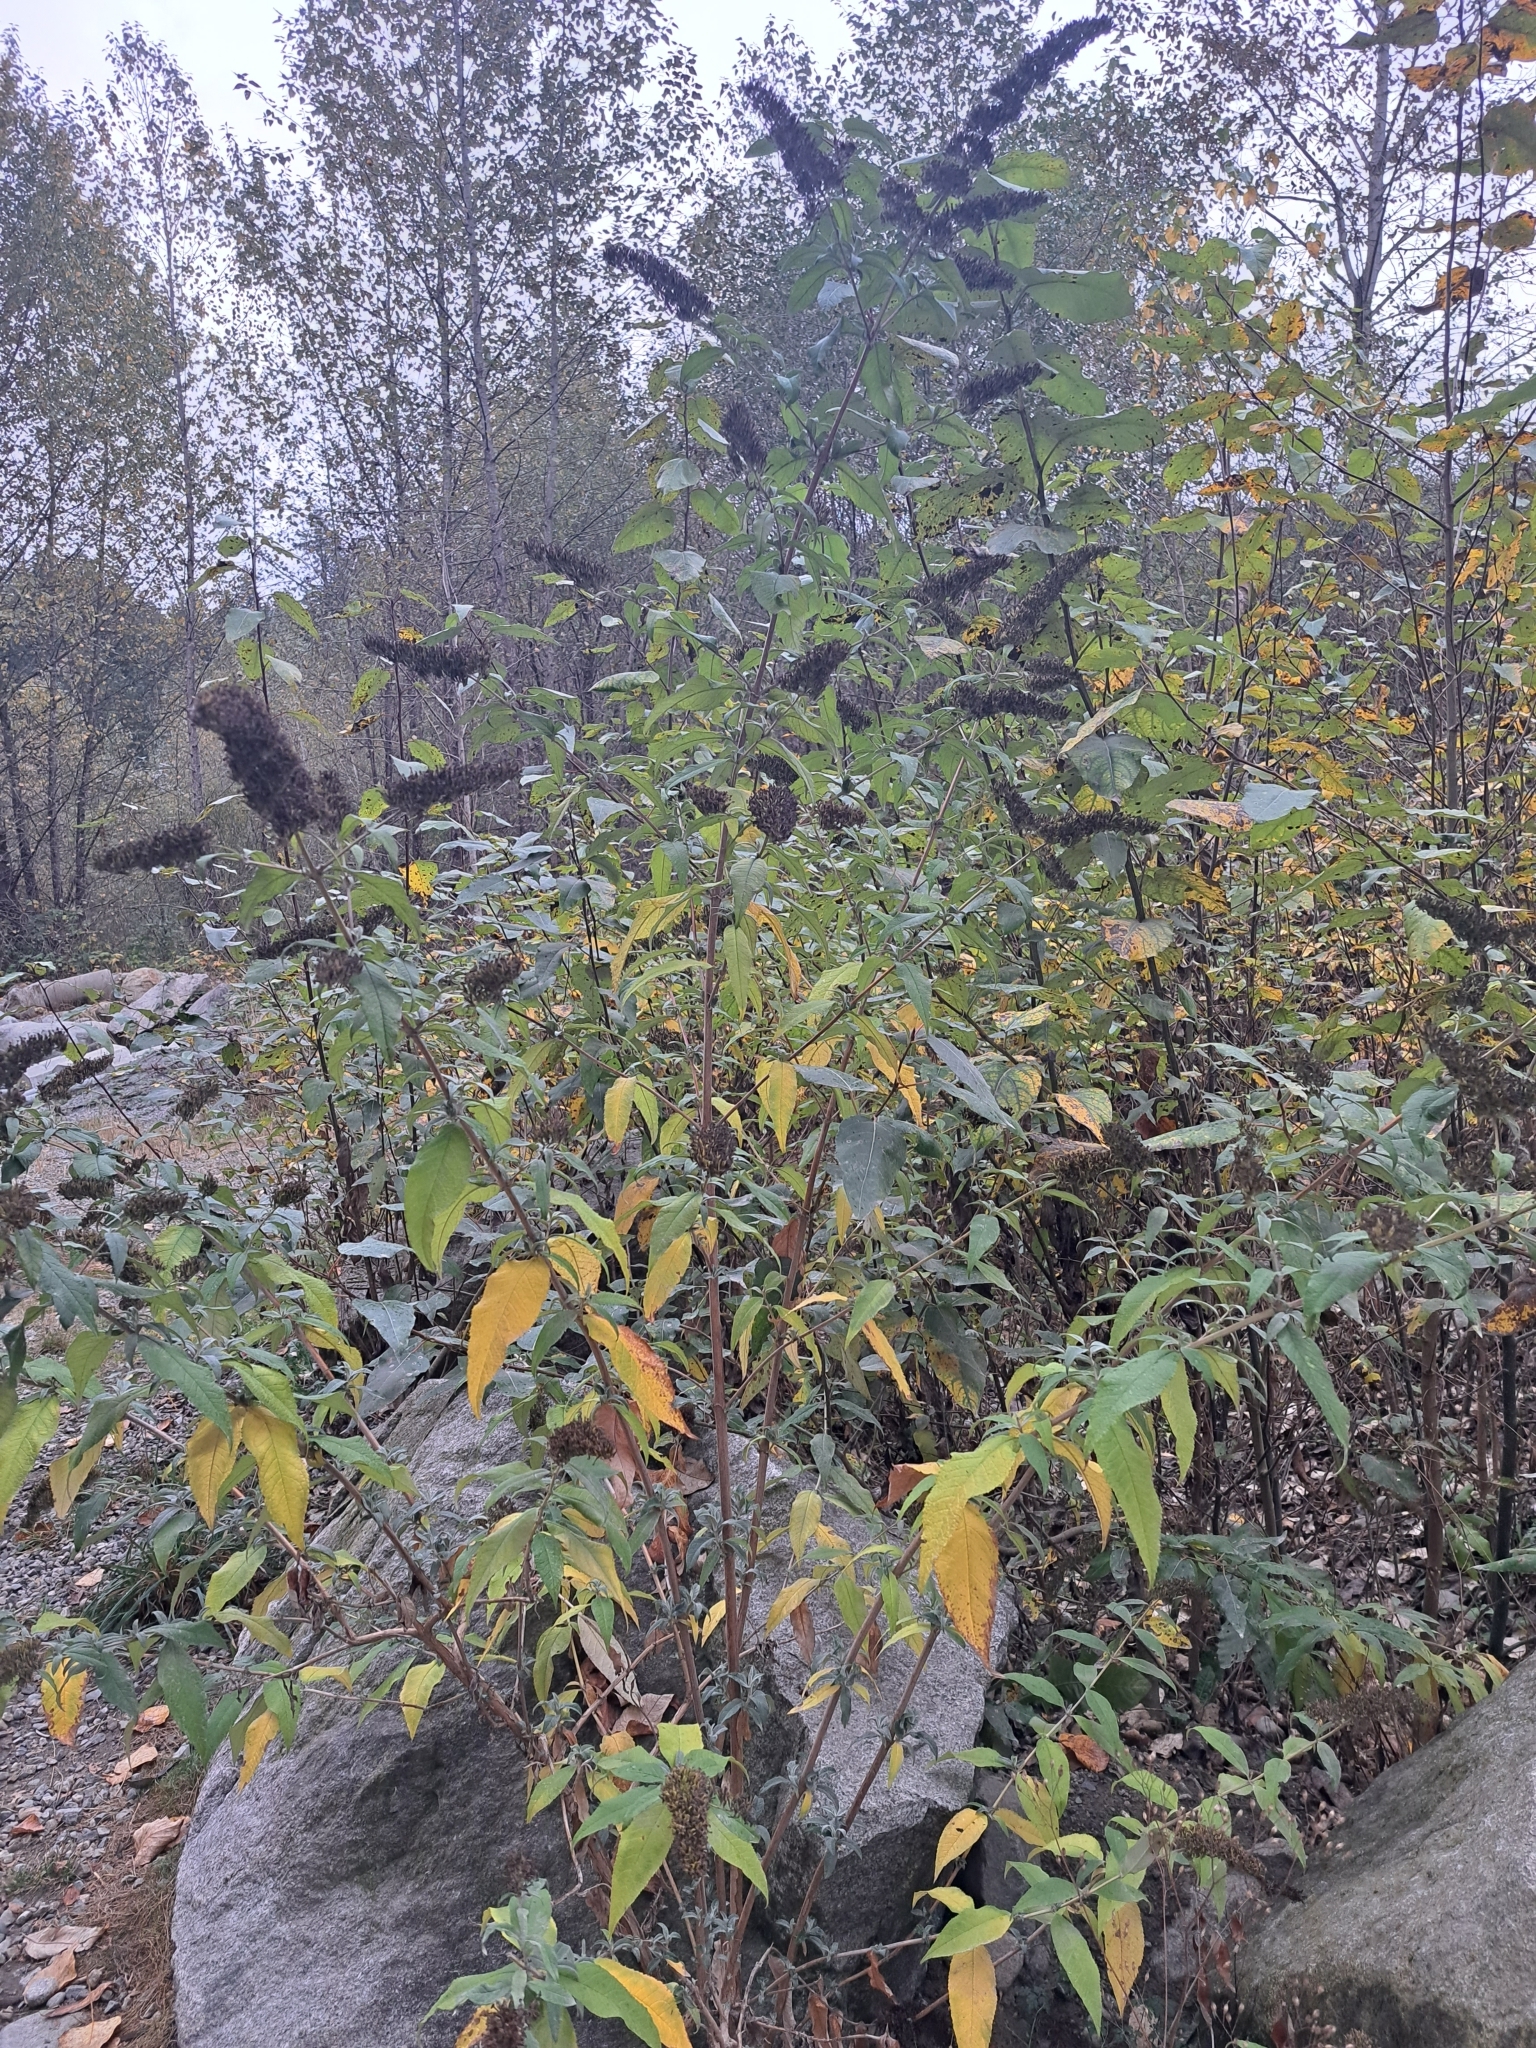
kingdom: Plantae
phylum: Tracheophyta
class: Magnoliopsida
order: Lamiales
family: Scrophulariaceae
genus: Buddleja
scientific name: Buddleja davidii
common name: Butterfly-bush
